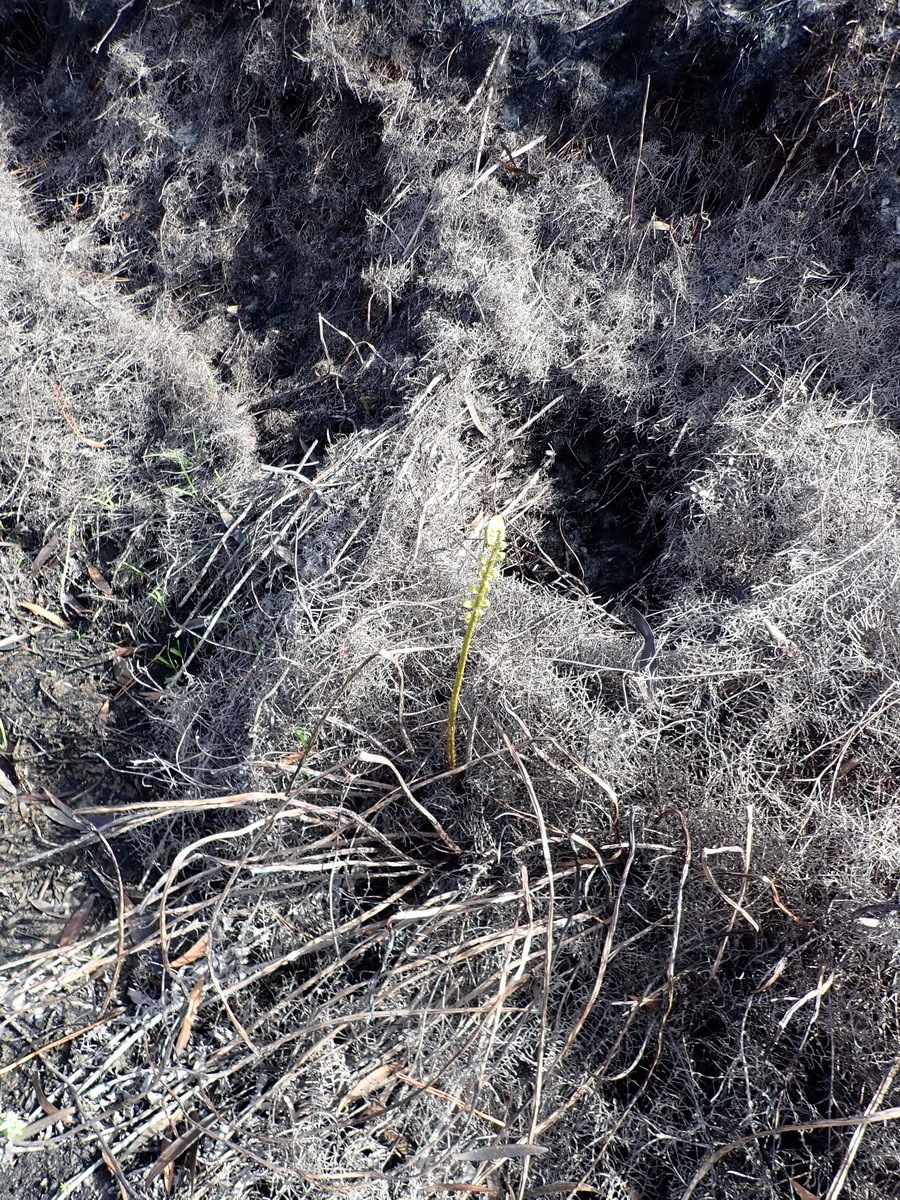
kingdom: Plantae
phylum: Tracheophyta
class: Polypodiopsida
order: Gleicheniales
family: Gleicheniaceae
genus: Gleichenia
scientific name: Gleichenia polypodioides
